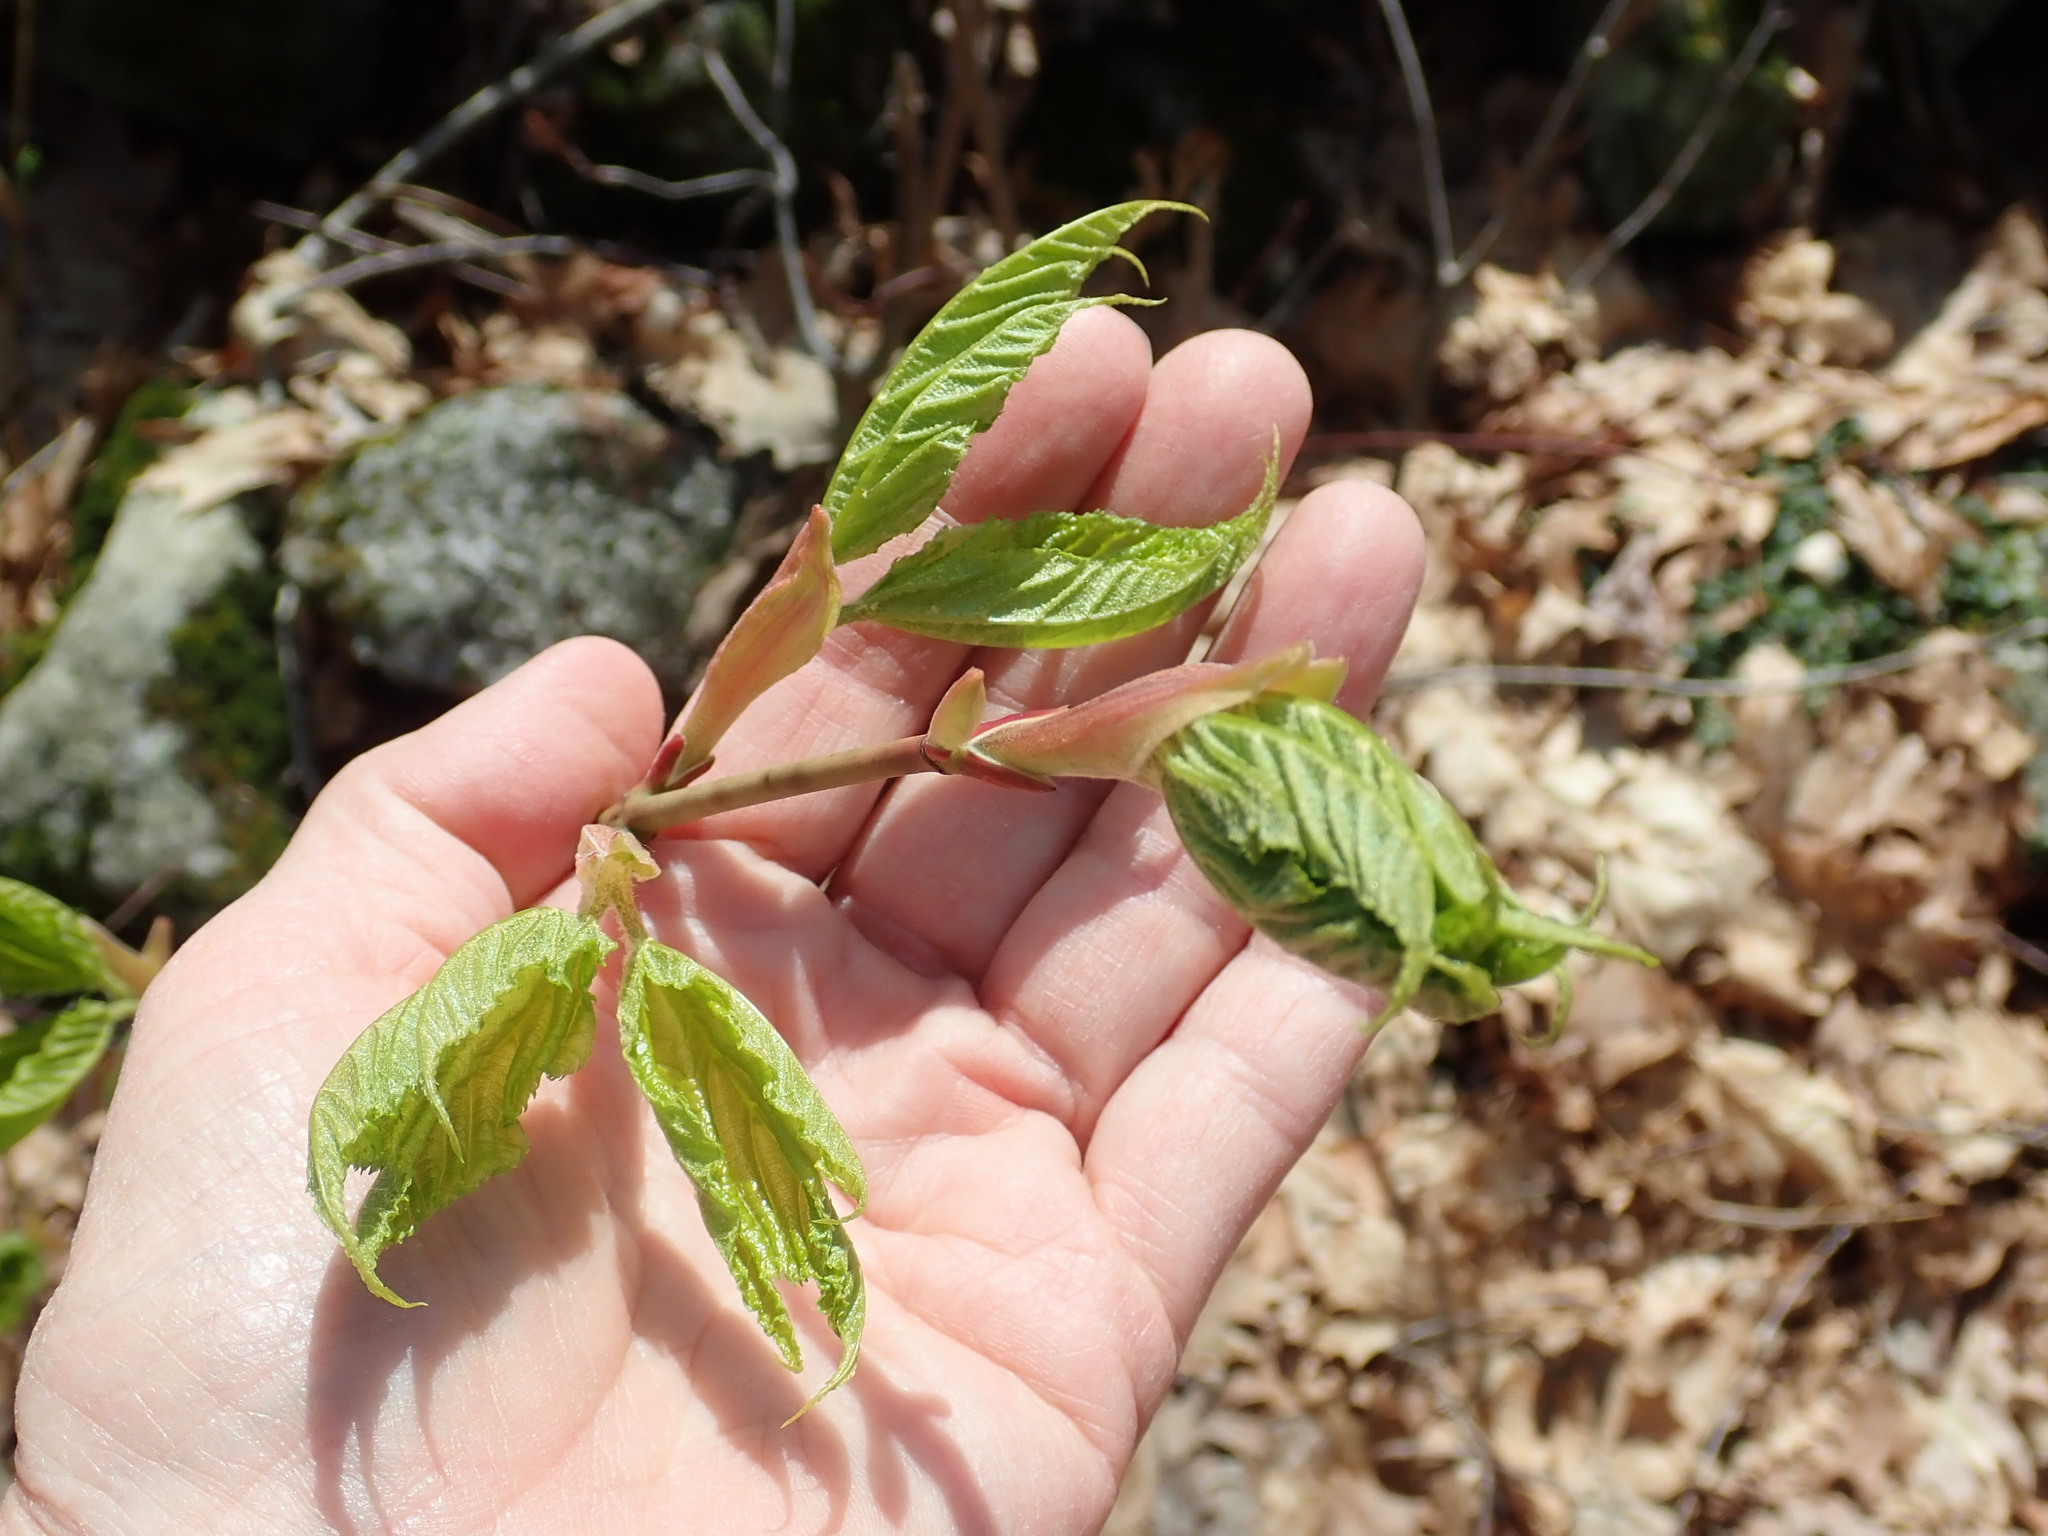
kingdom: Plantae
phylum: Tracheophyta
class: Magnoliopsida
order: Sapindales
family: Sapindaceae
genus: Acer
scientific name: Acer pensylvanicum
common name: Moosewood
